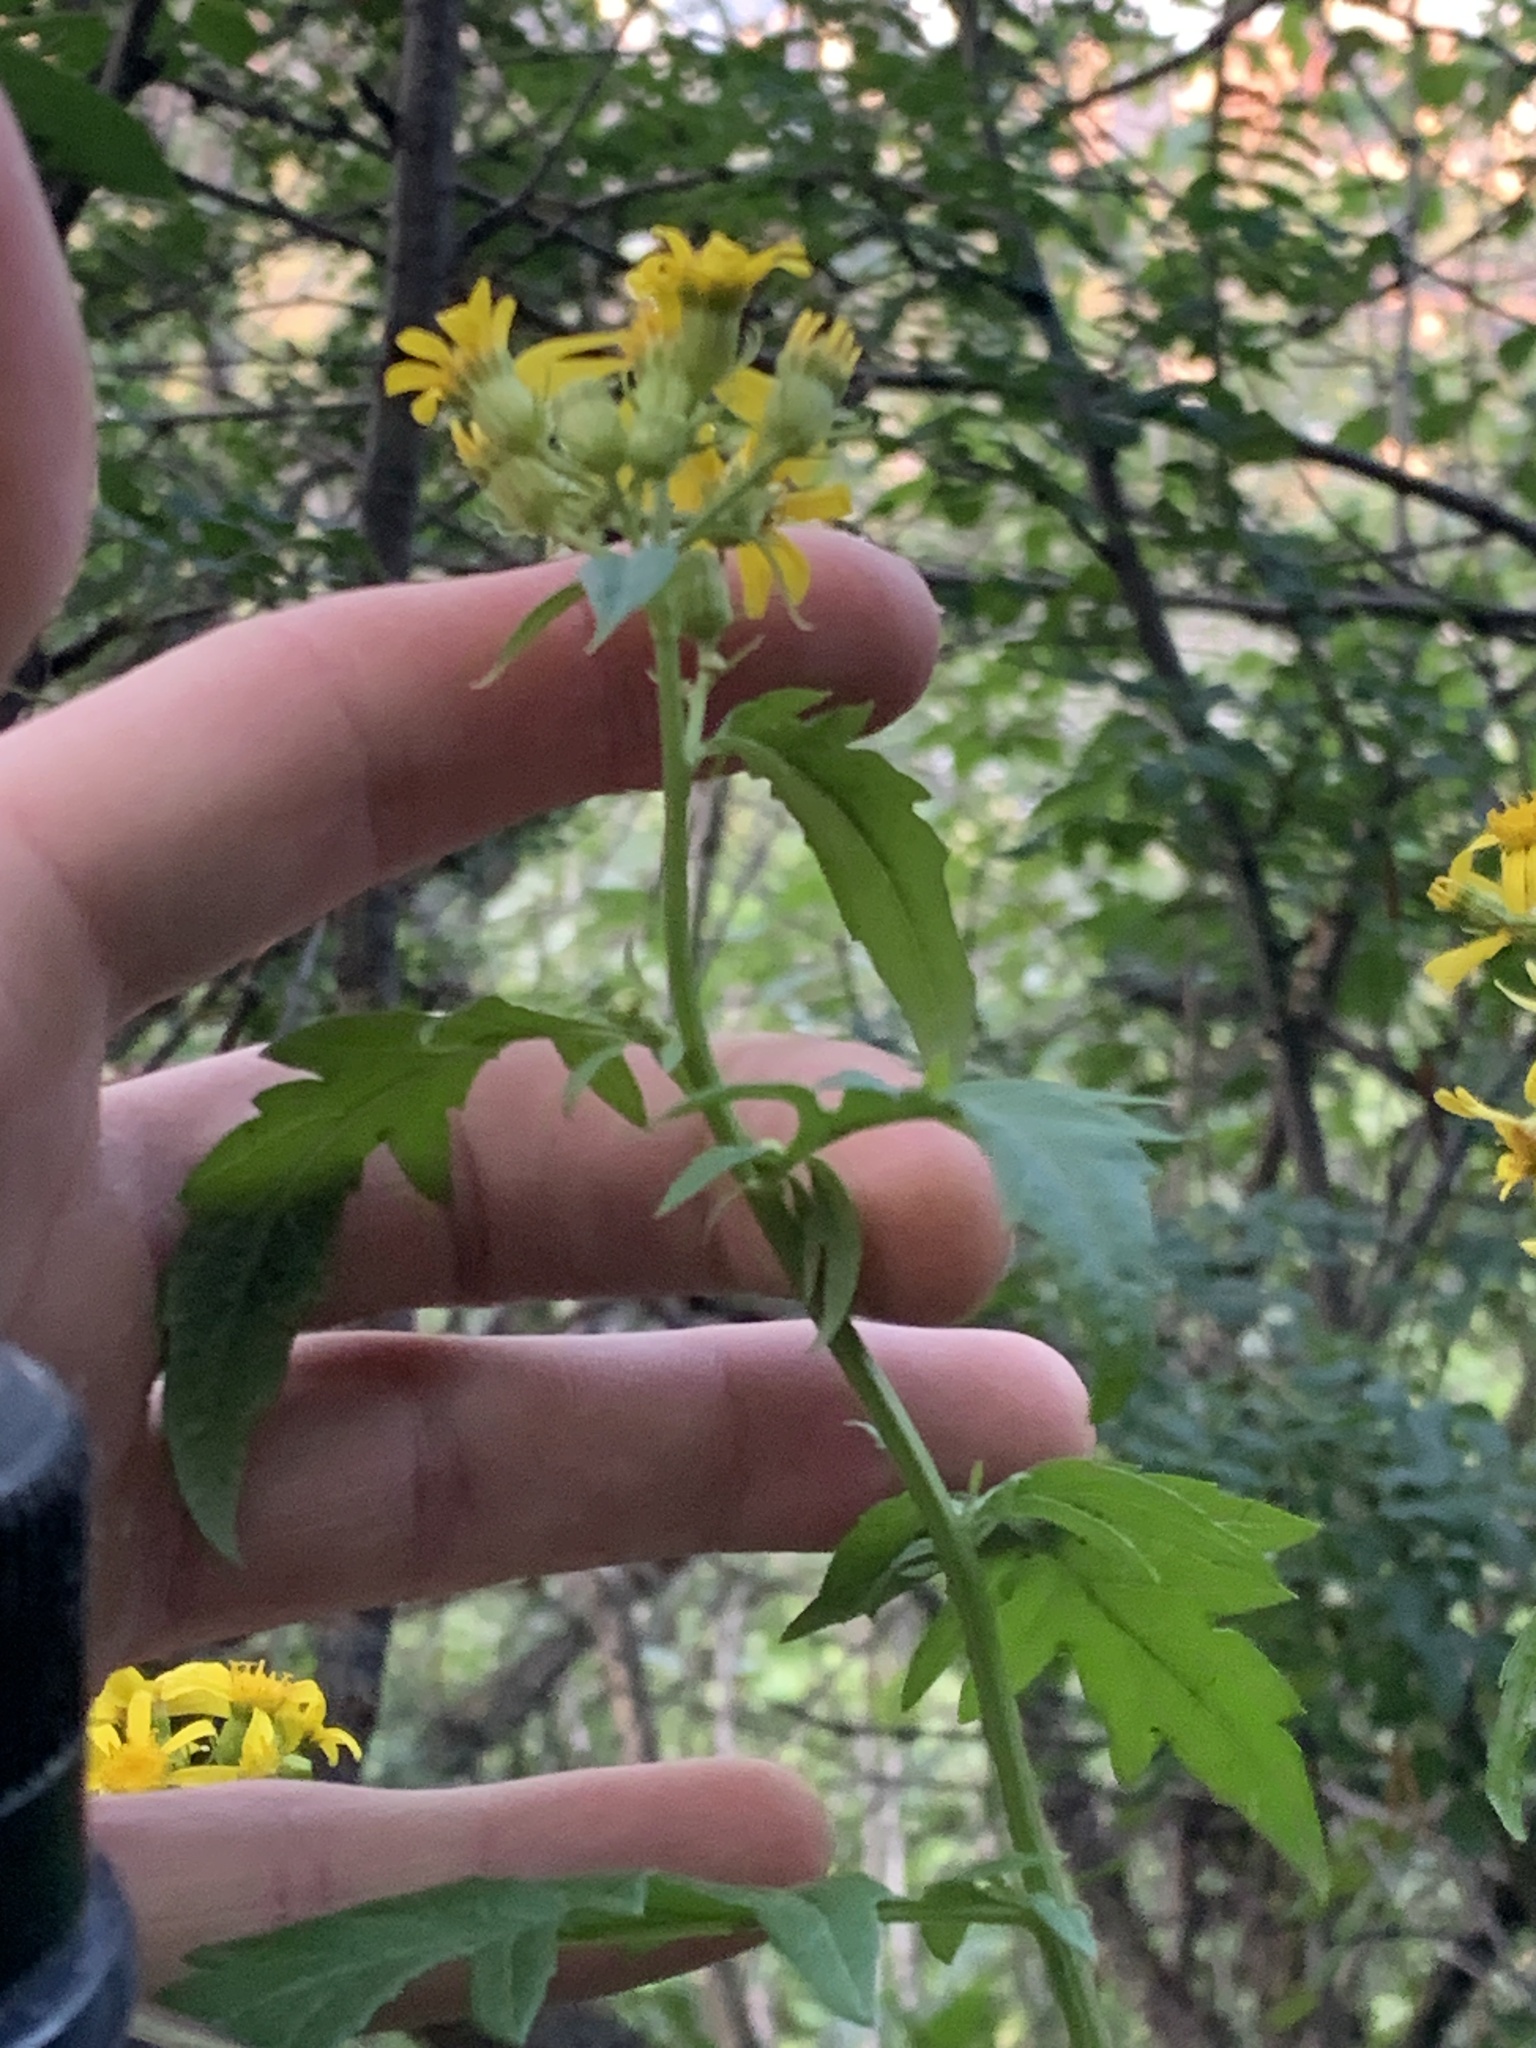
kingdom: Plantae
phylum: Tracheophyta
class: Magnoliopsida
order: Asterales
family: Asteraceae
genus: Senecio
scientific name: Senecio eremophilus
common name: Desert ragwort
